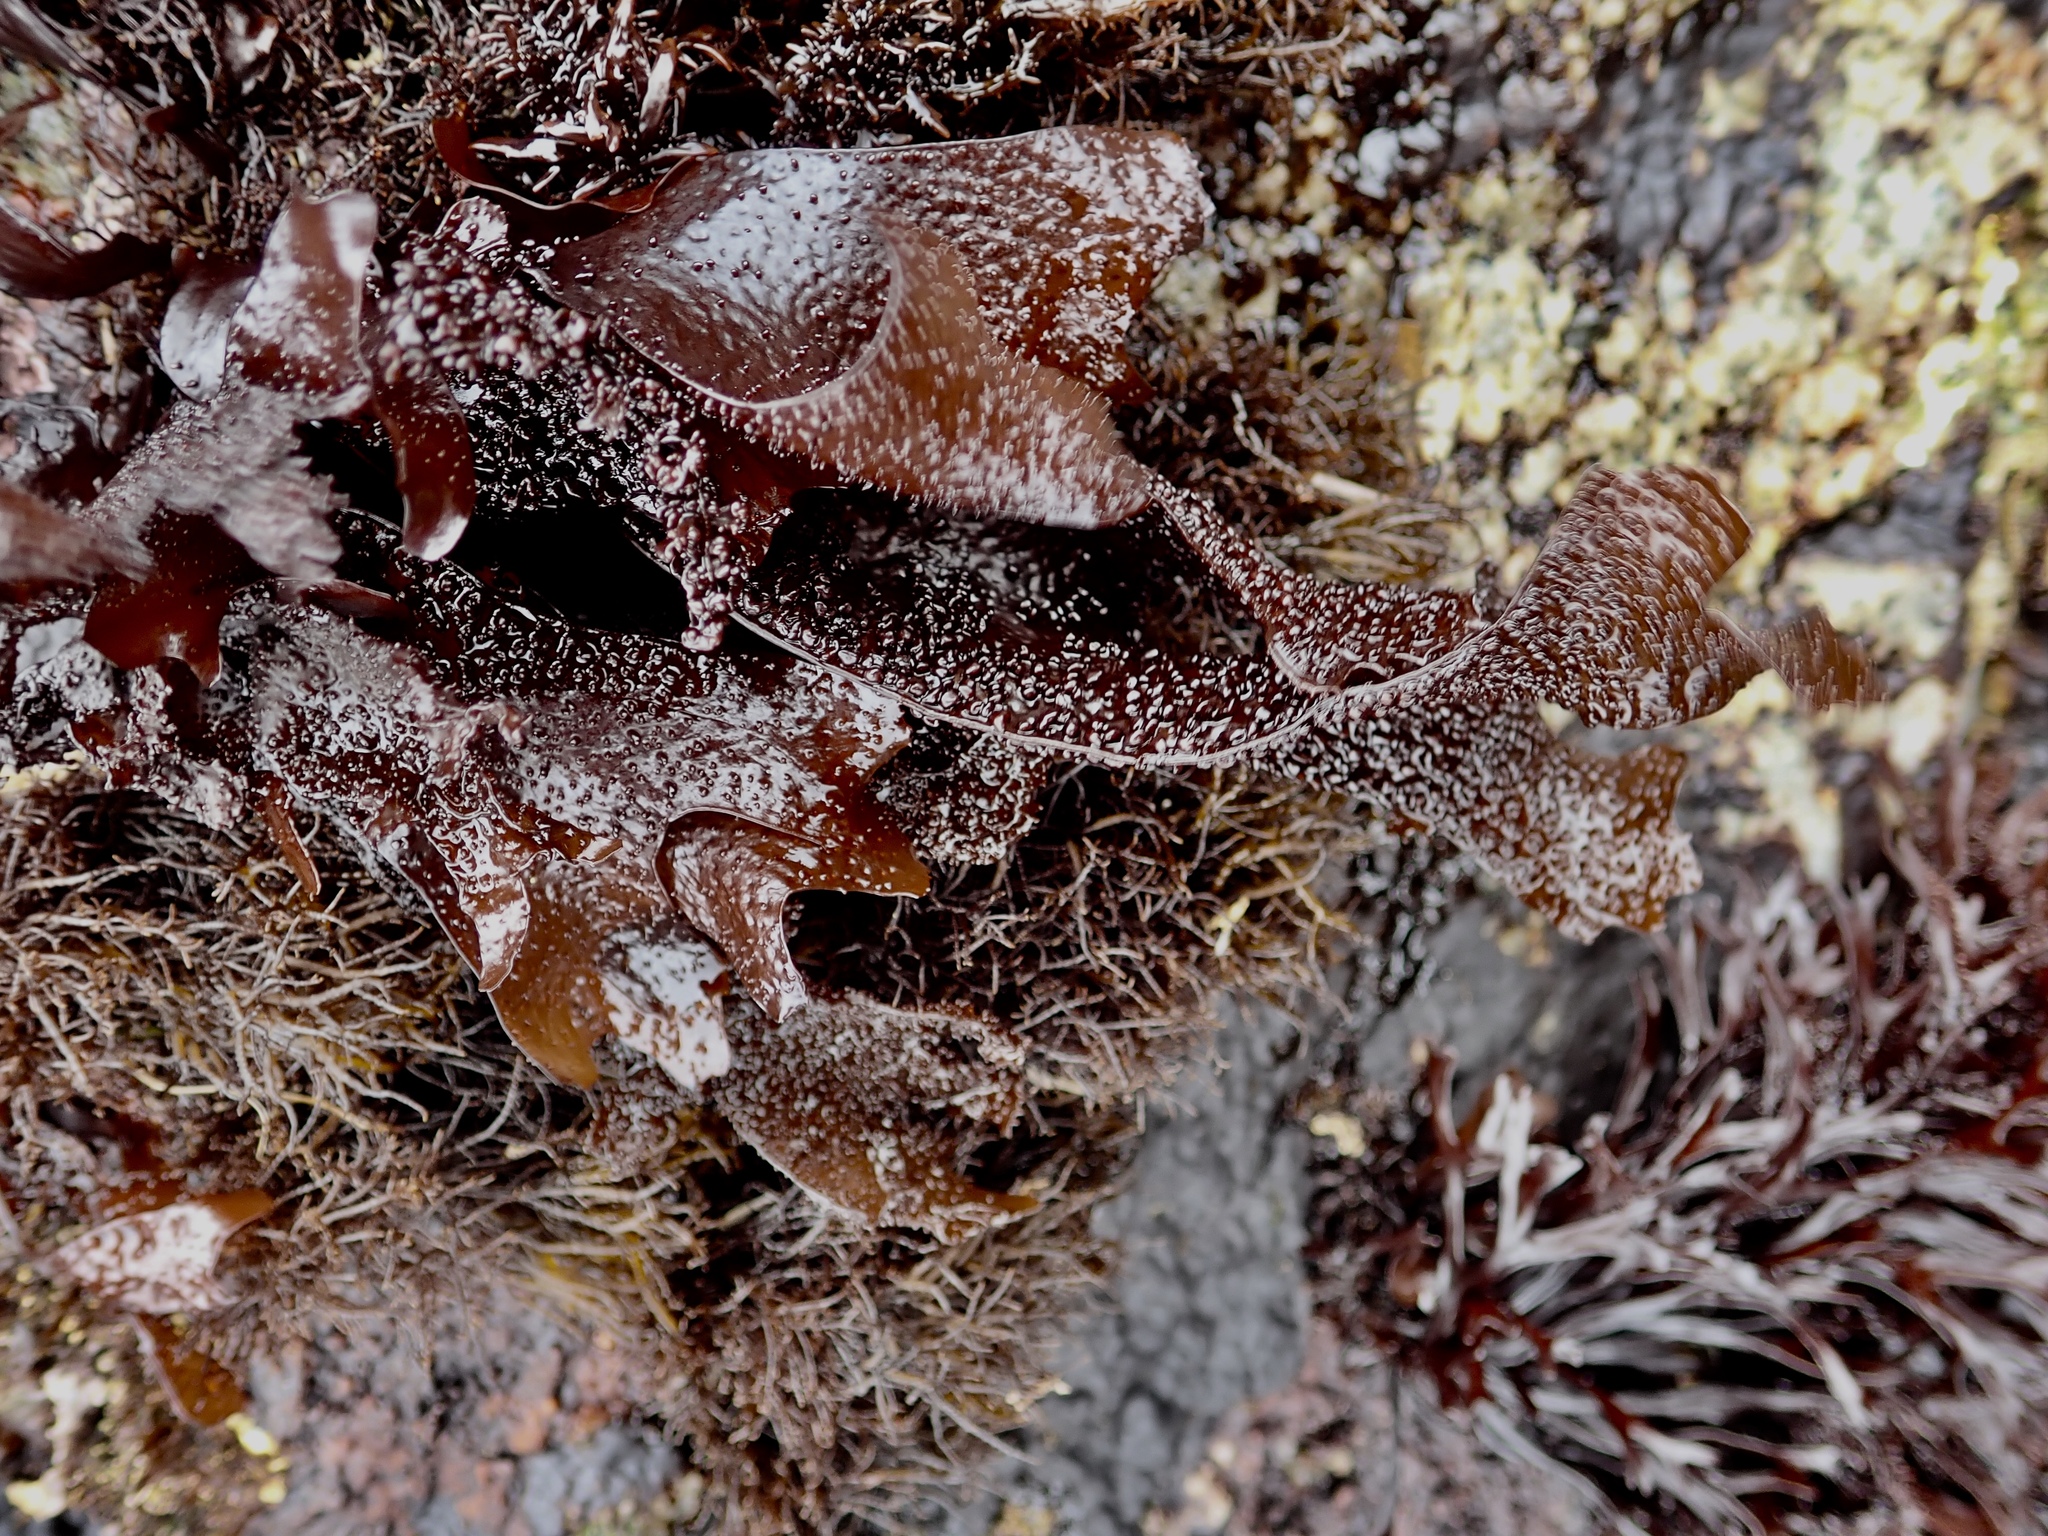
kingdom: Plantae
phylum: Rhodophyta
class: Florideophyceae
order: Gigartinales
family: Phyllophoraceae
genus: Mastocarpus
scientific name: Mastocarpus papillatus
